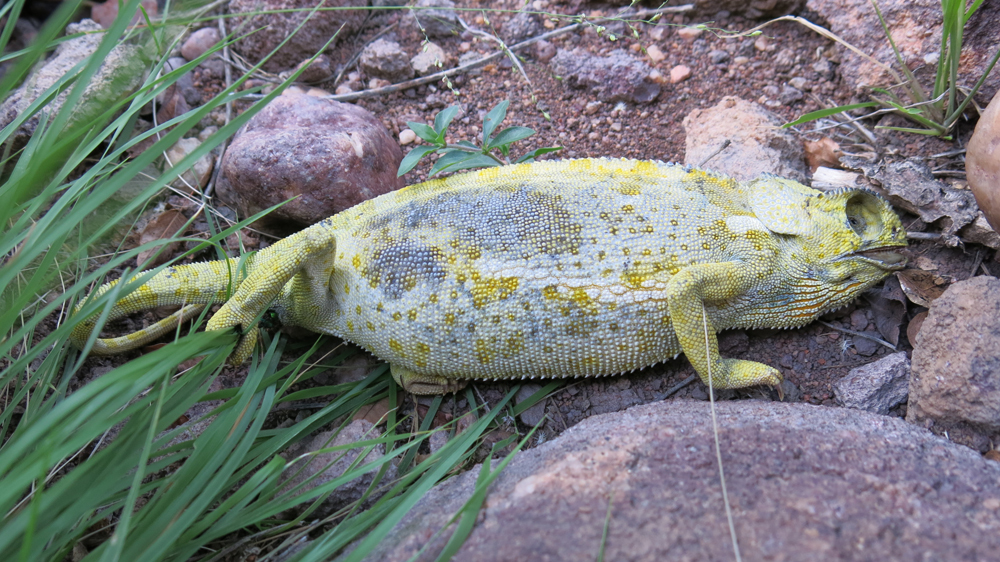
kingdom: Animalia
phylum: Chordata
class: Squamata
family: Chamaeleonidae
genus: Chamaeleo
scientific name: Chamaeleo dilepis
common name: Flapneck chameleon
